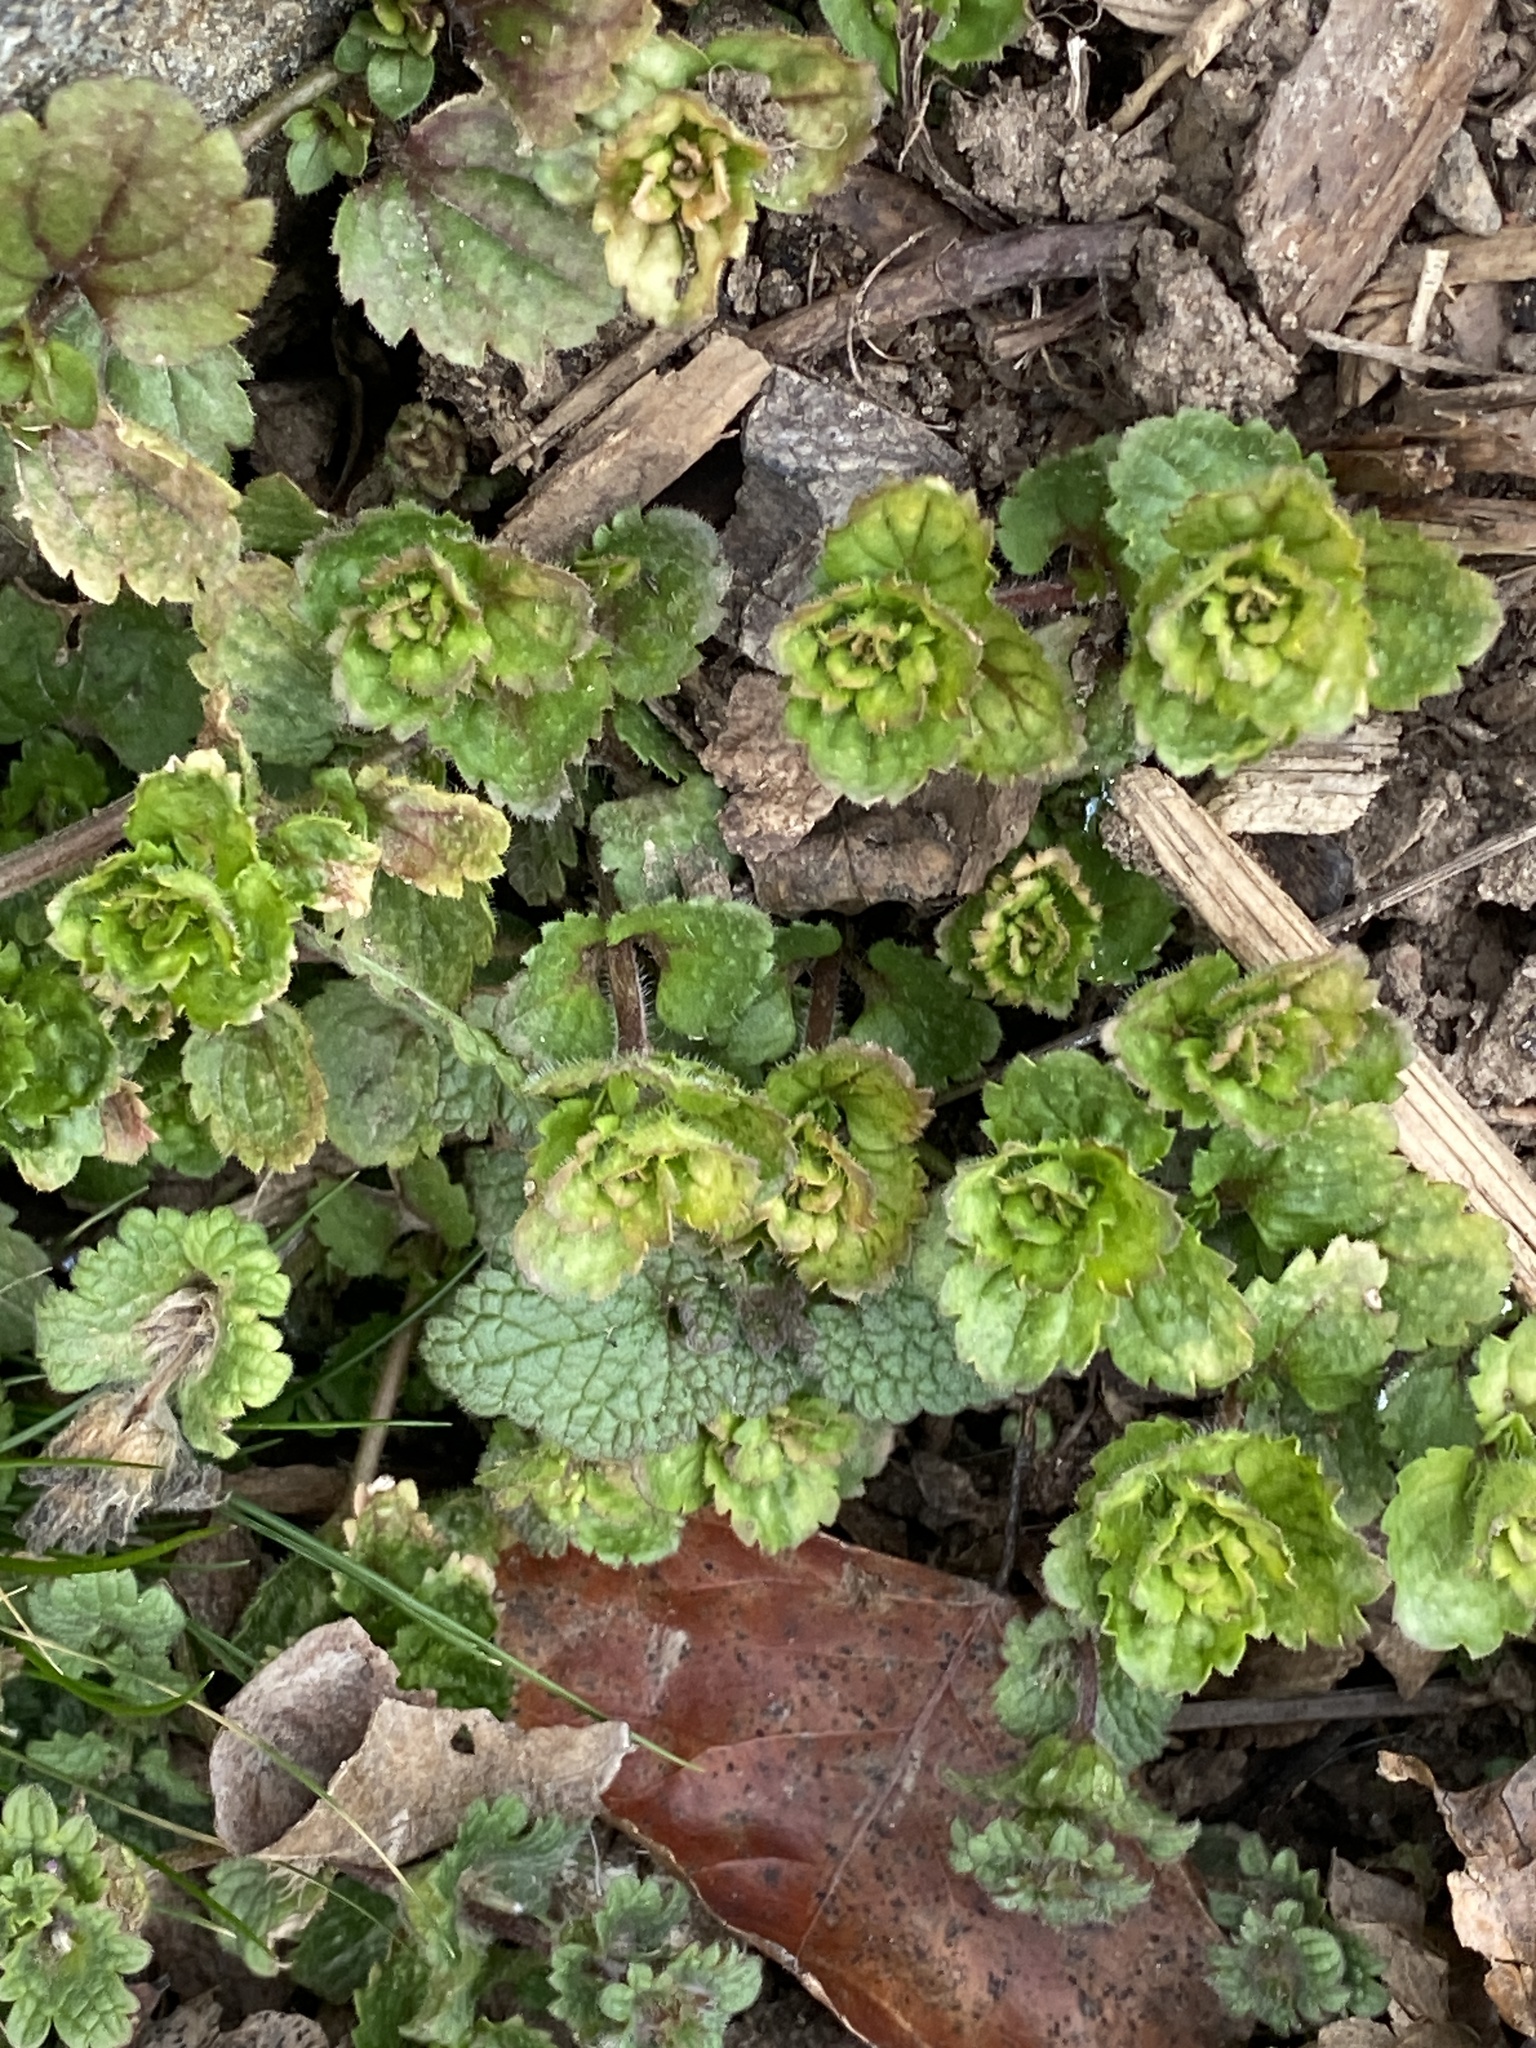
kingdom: Plantae
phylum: Tracheophyta
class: Magnoliopsida
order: Lamiales
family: Plantaginaceae
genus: Veronica
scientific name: Veronica persica
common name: Common field-speedwell
